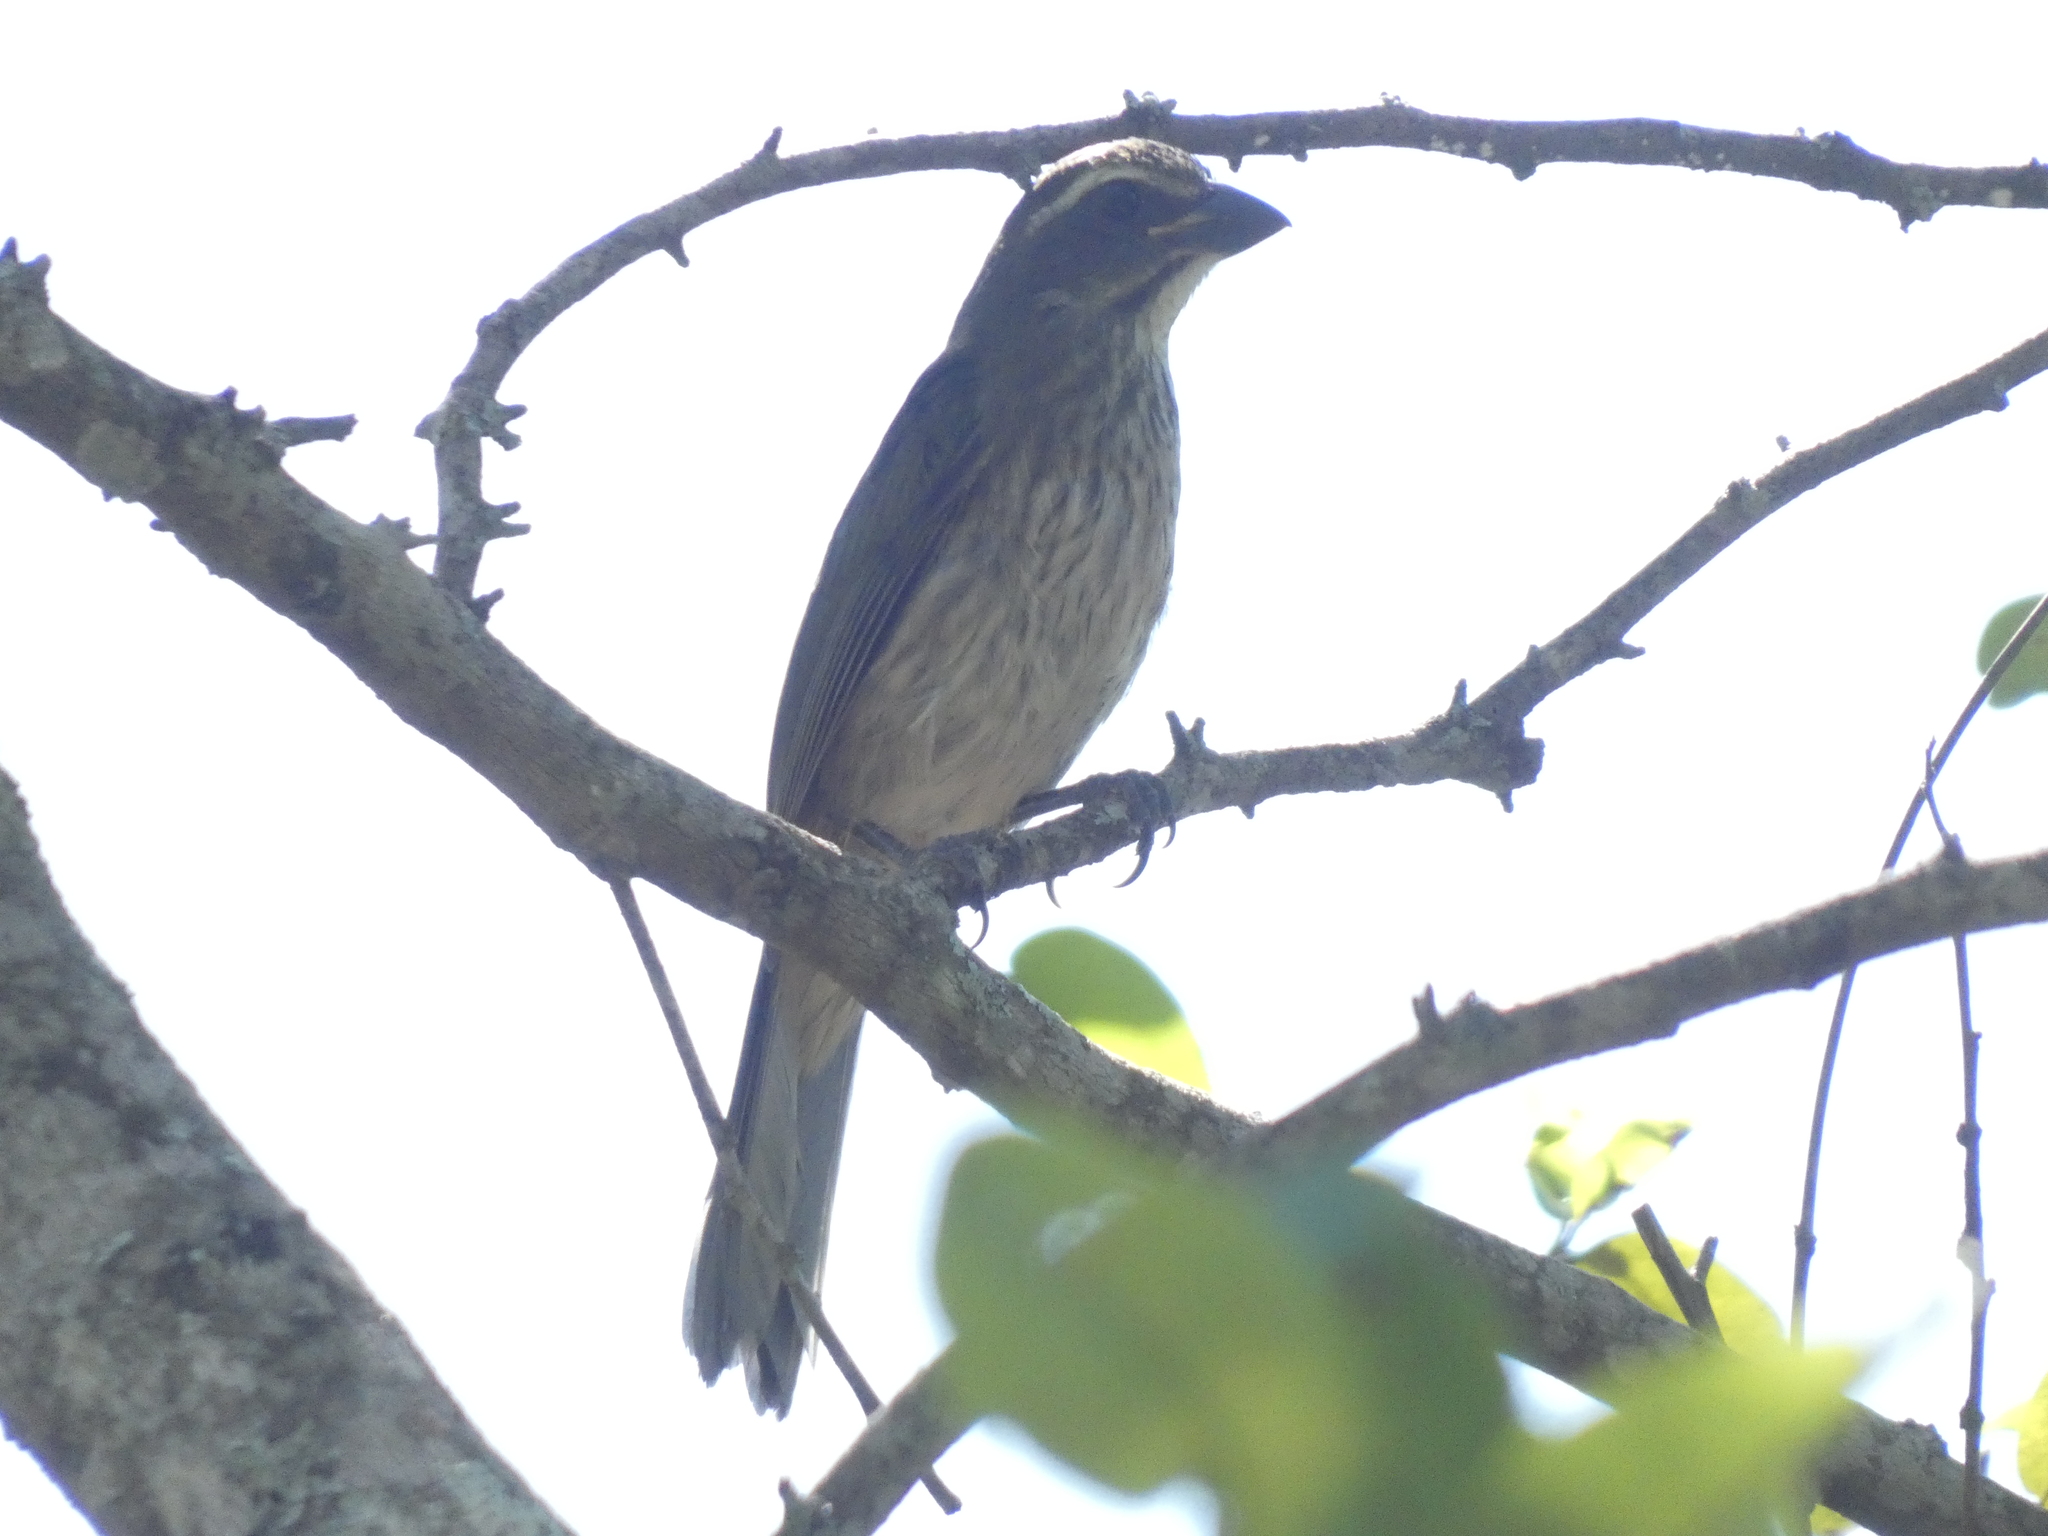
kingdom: Animalia
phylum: Chordata
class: Aves
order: Passeriformes
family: Thraupidae
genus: Saltator
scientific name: Saltator similis
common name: Green-winged saltator
